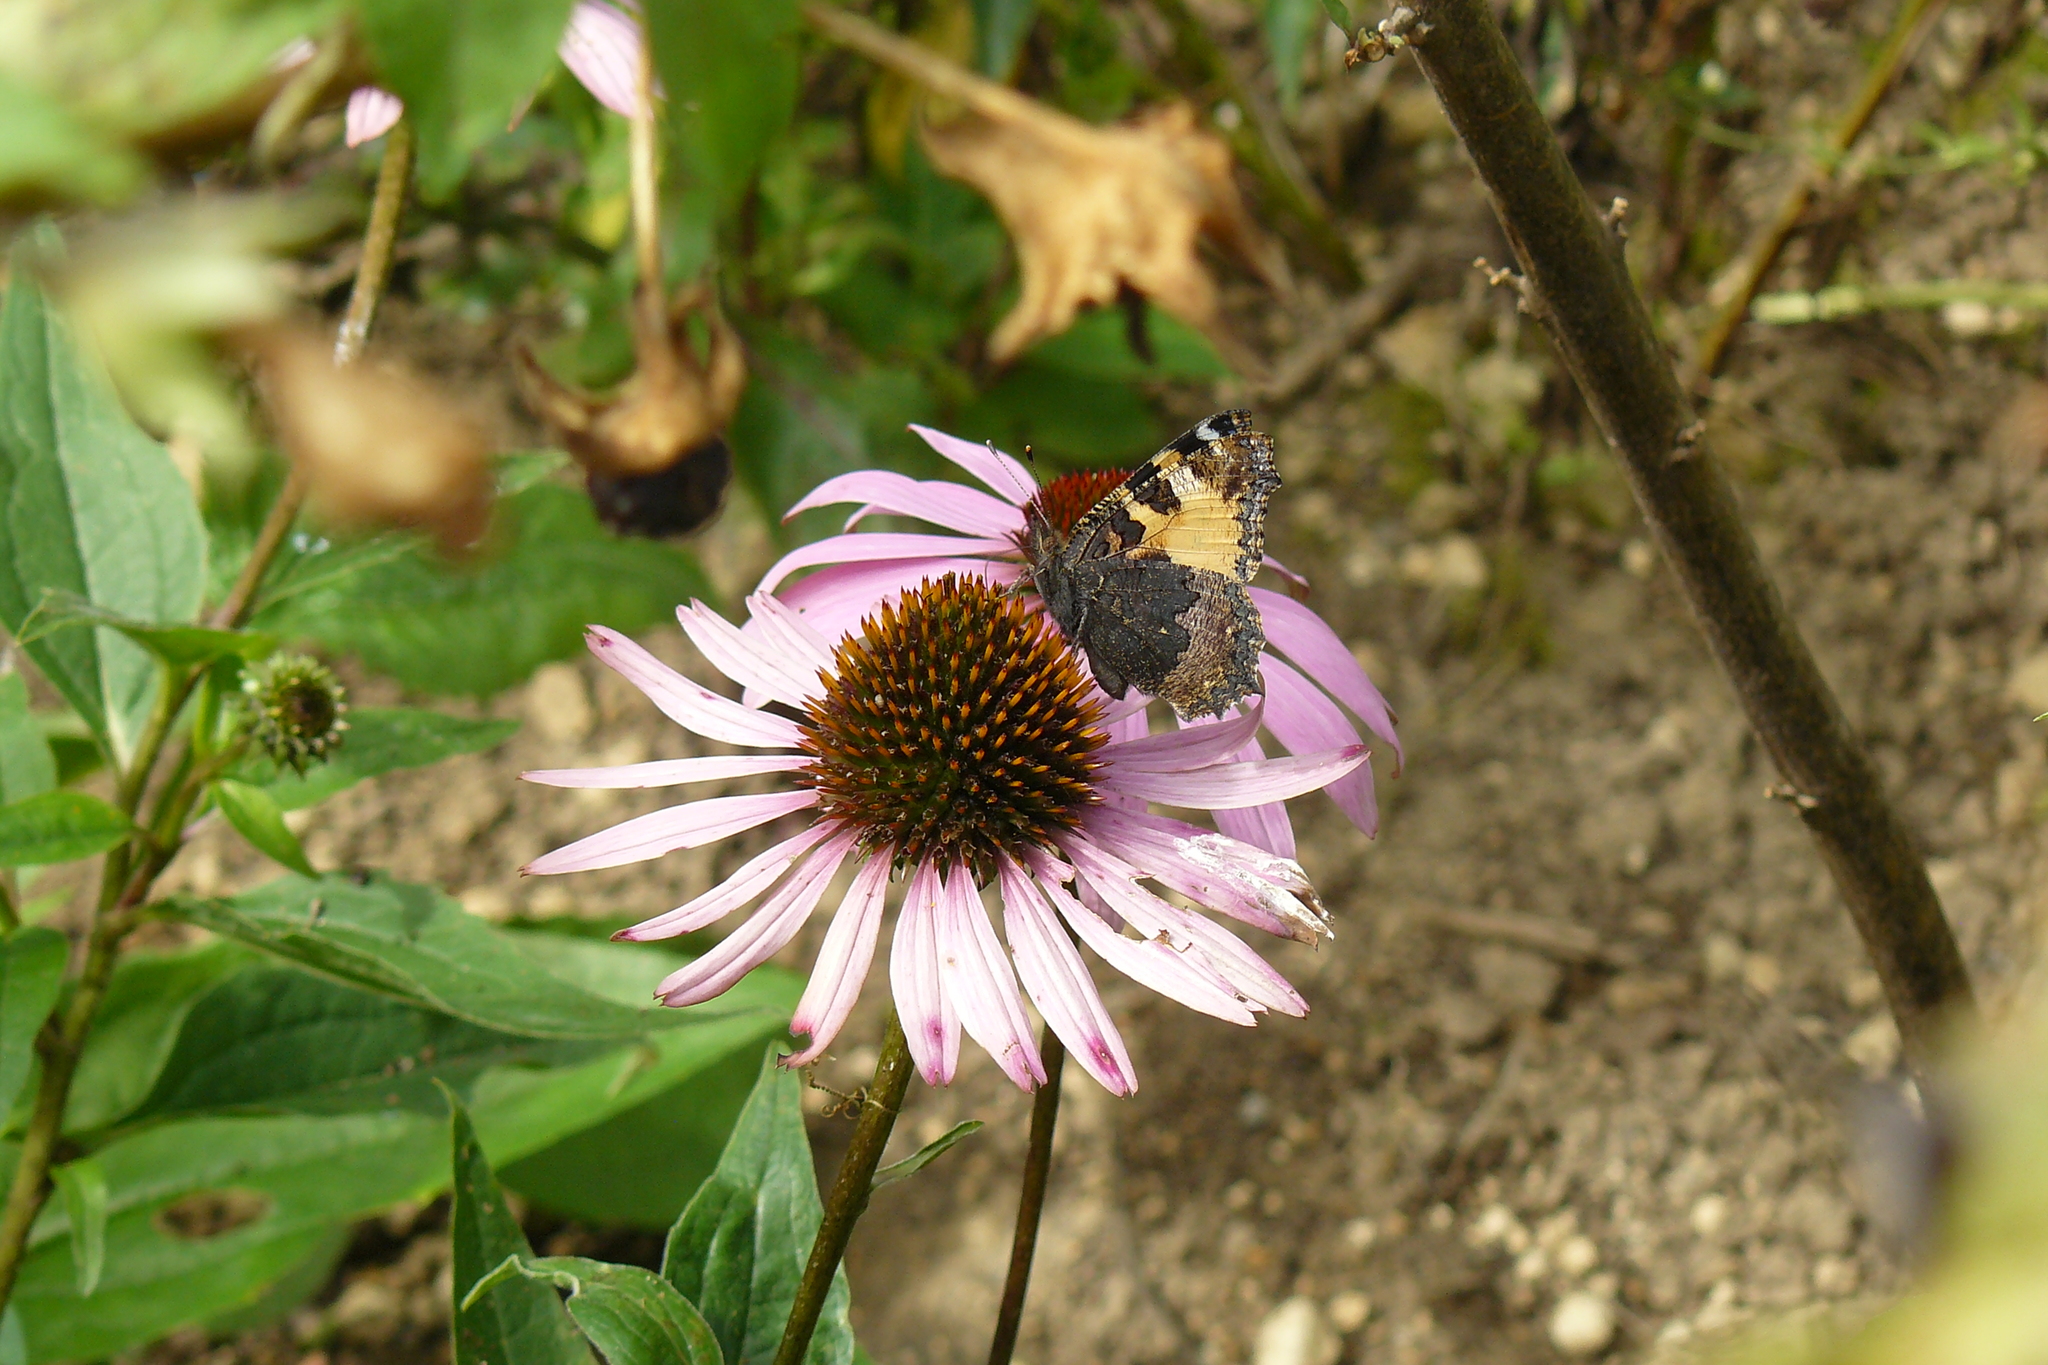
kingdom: Animalia
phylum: Arthropoda
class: Insecta
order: Lepidoptera
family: Nymphalidae
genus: Aglais
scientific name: Aglais urticae
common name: Small tortoiseshell
